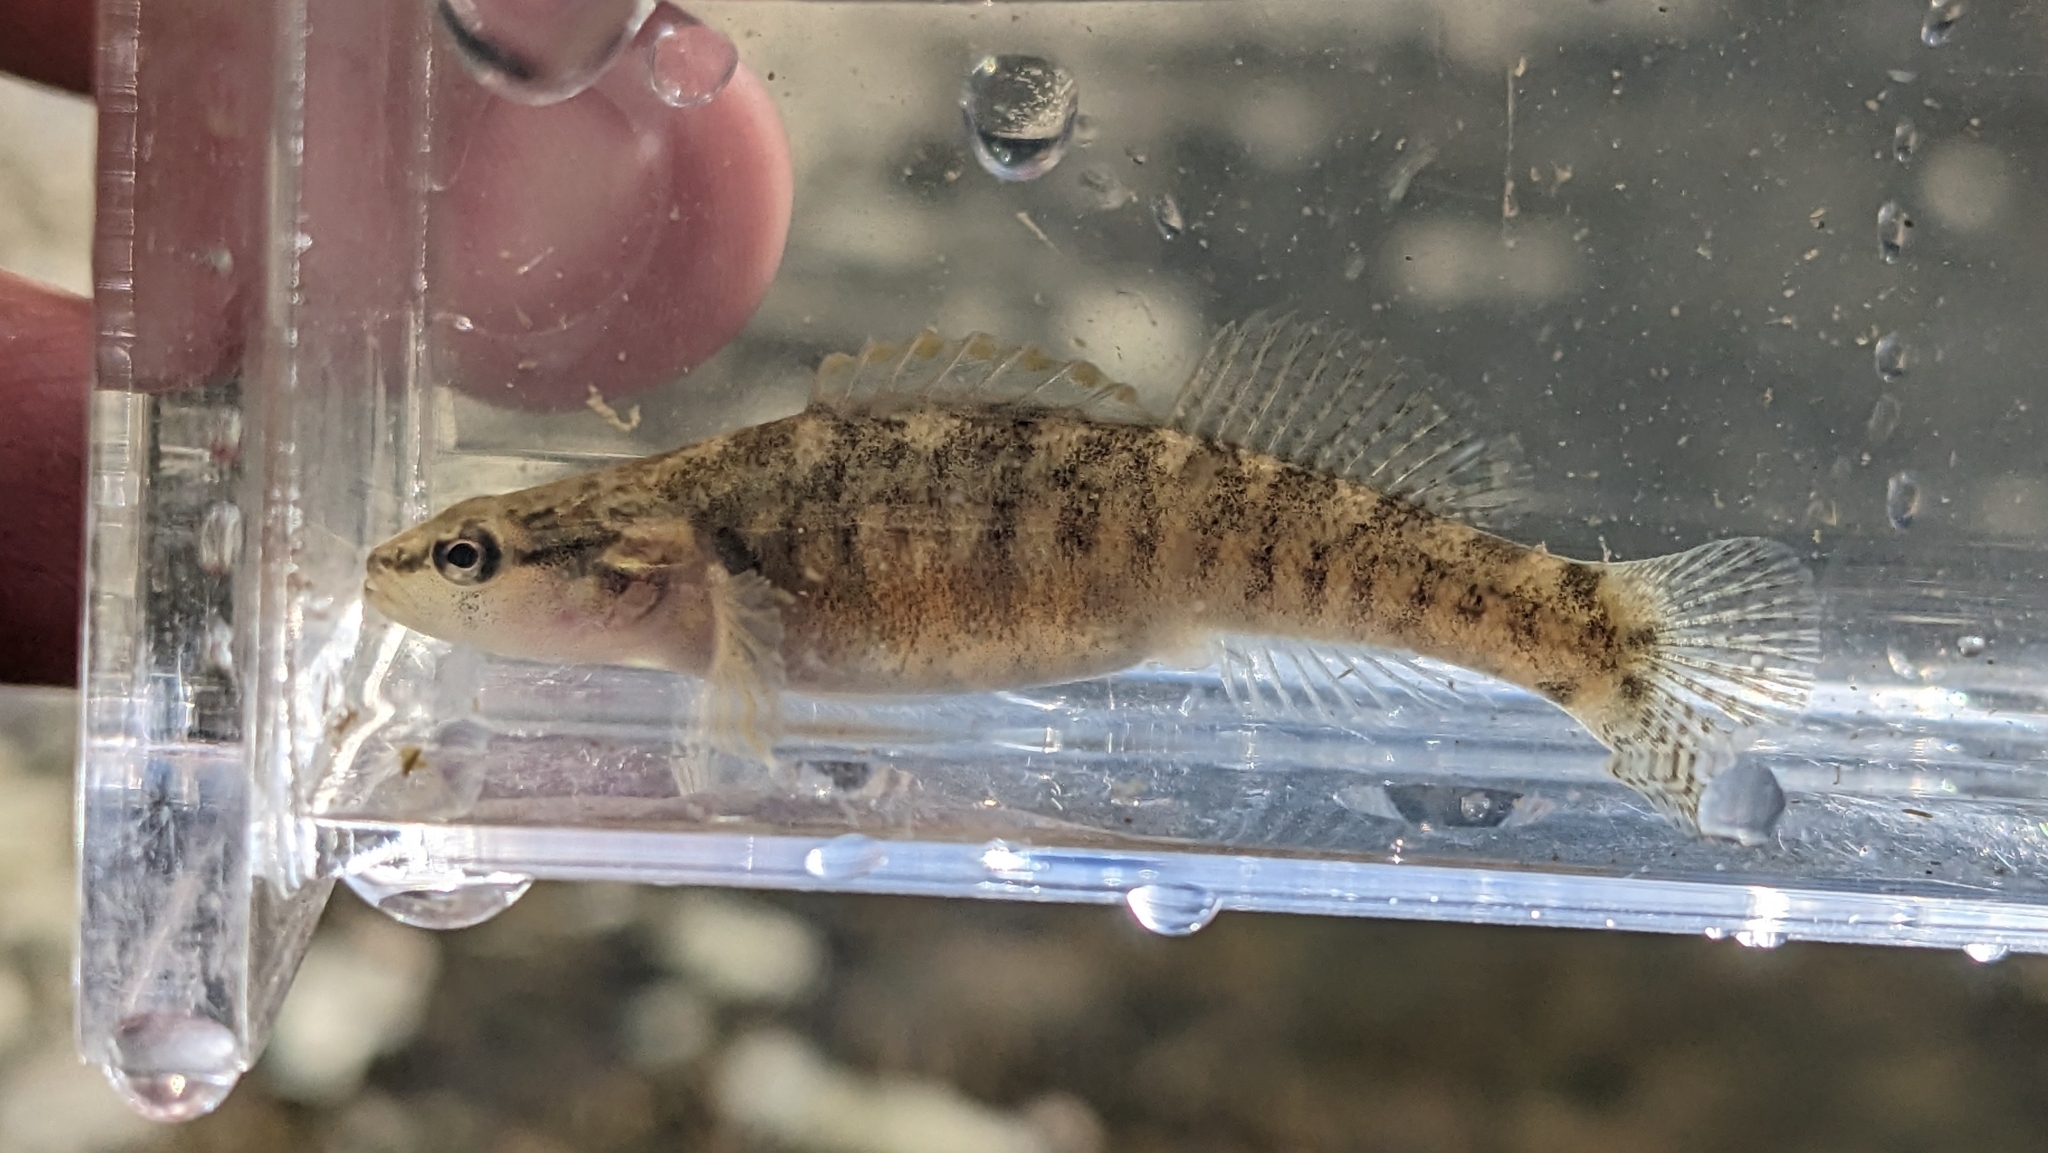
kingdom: Animalia
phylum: Chordata
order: Perciformes
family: Percidae
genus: Etheostoma
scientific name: Etheostoma flabellare
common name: Fantail darter
